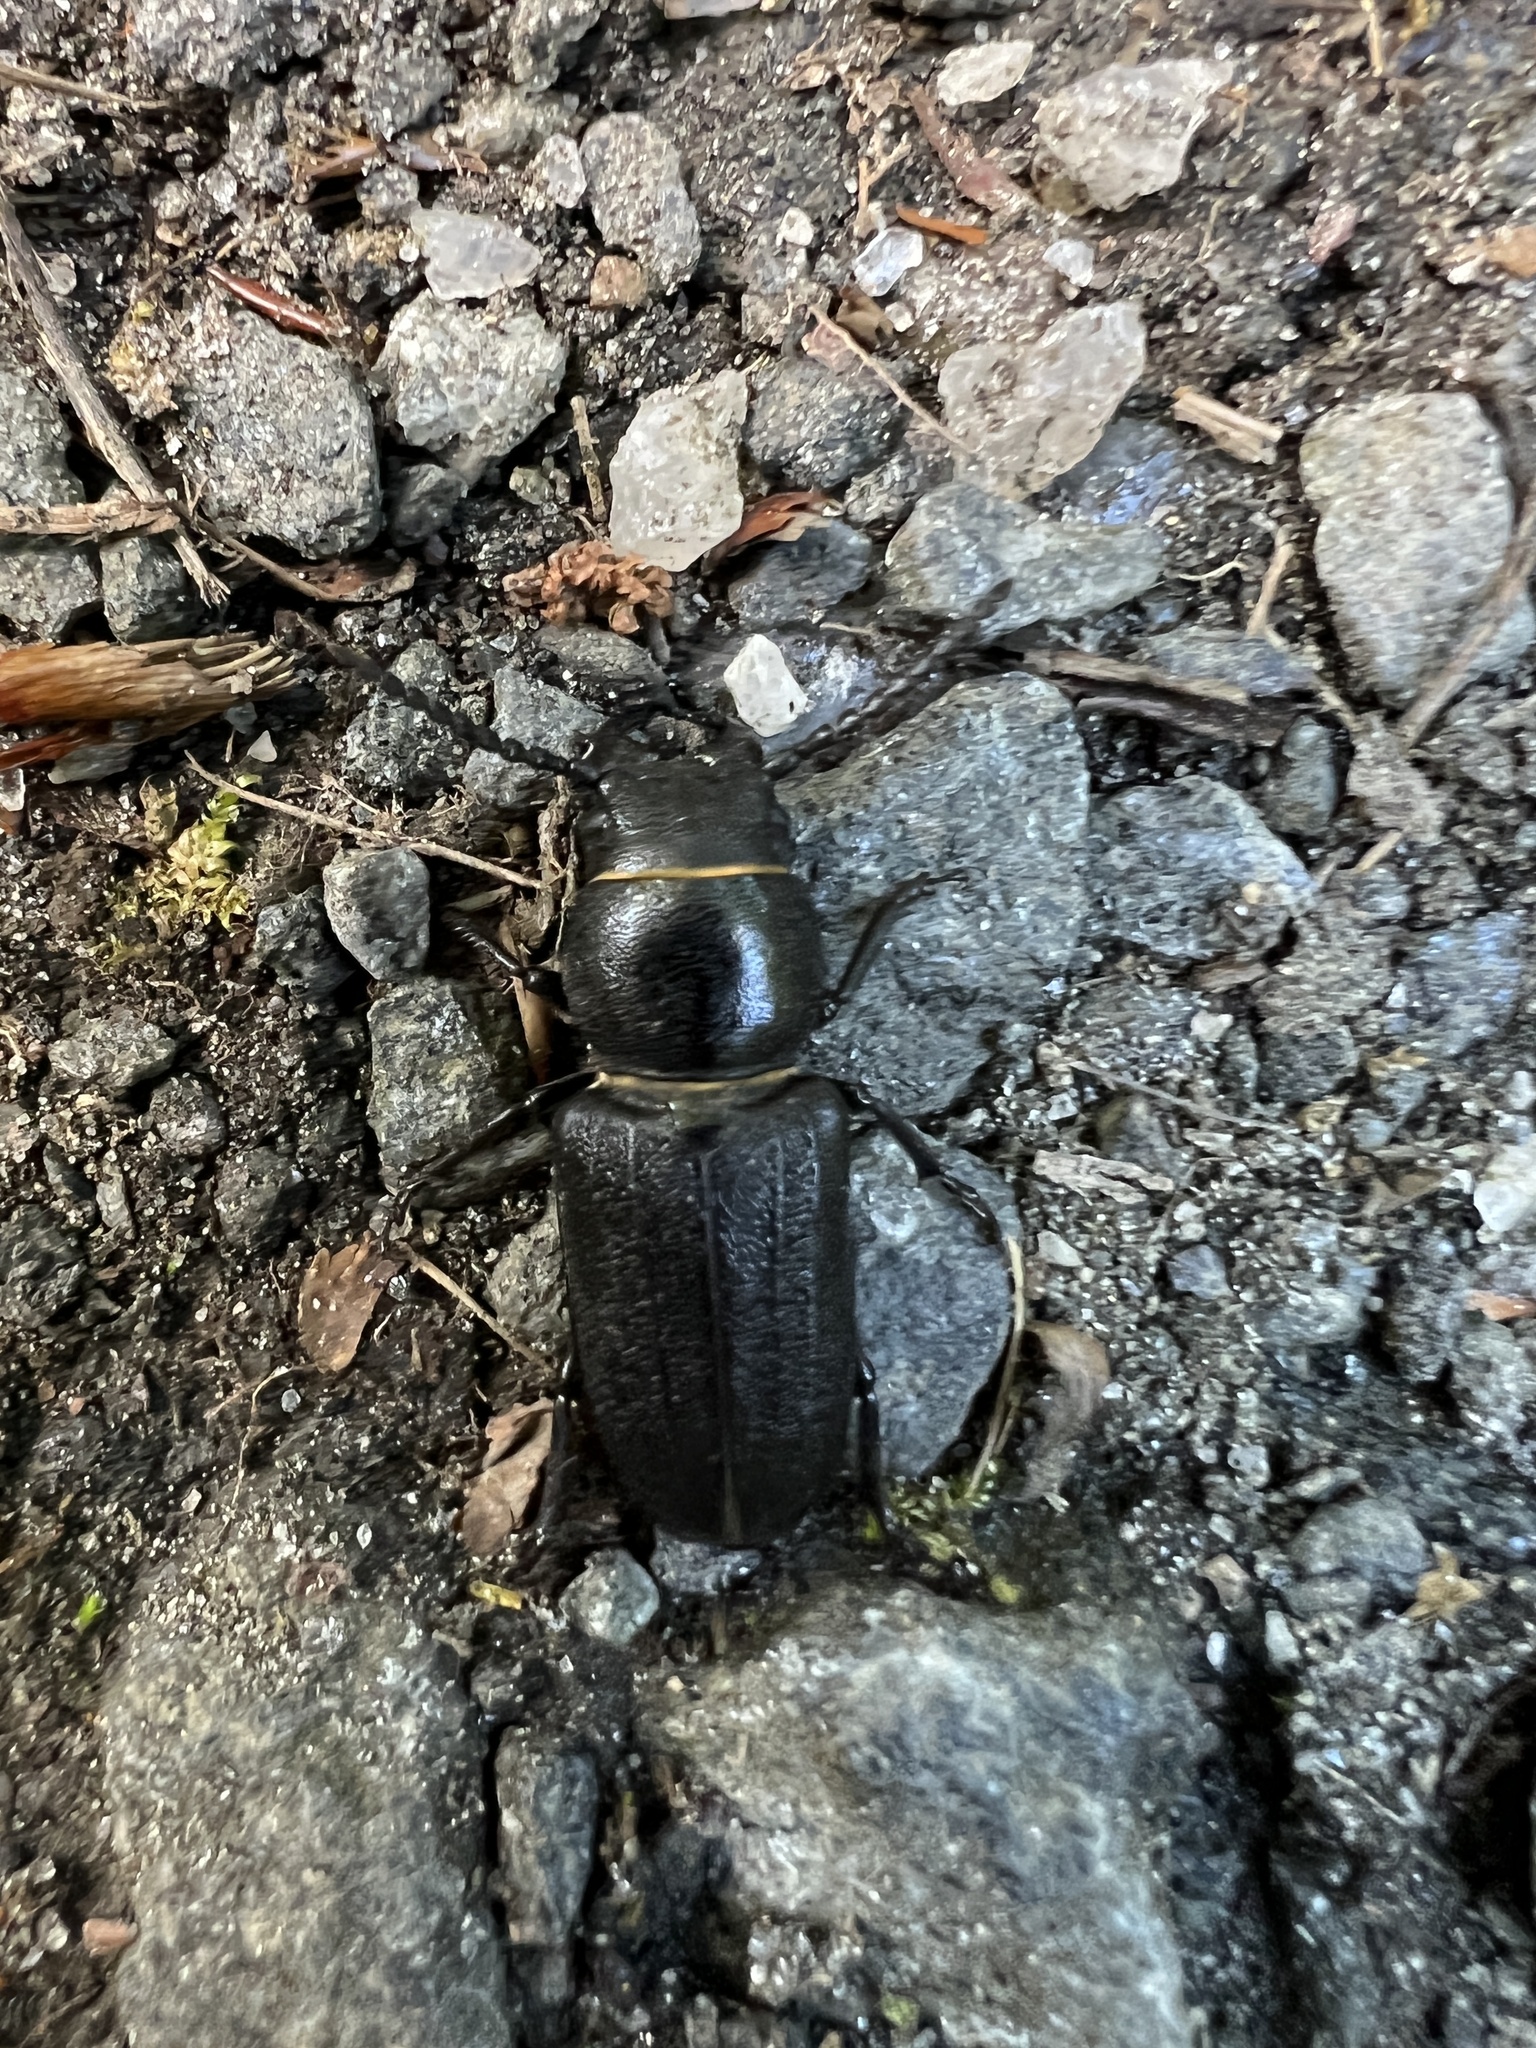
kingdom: Animalia
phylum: Arthropoda
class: Insecta
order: Coleoptera
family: Cerambycidae
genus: Spondylis
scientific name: Spondylis buprestoides
